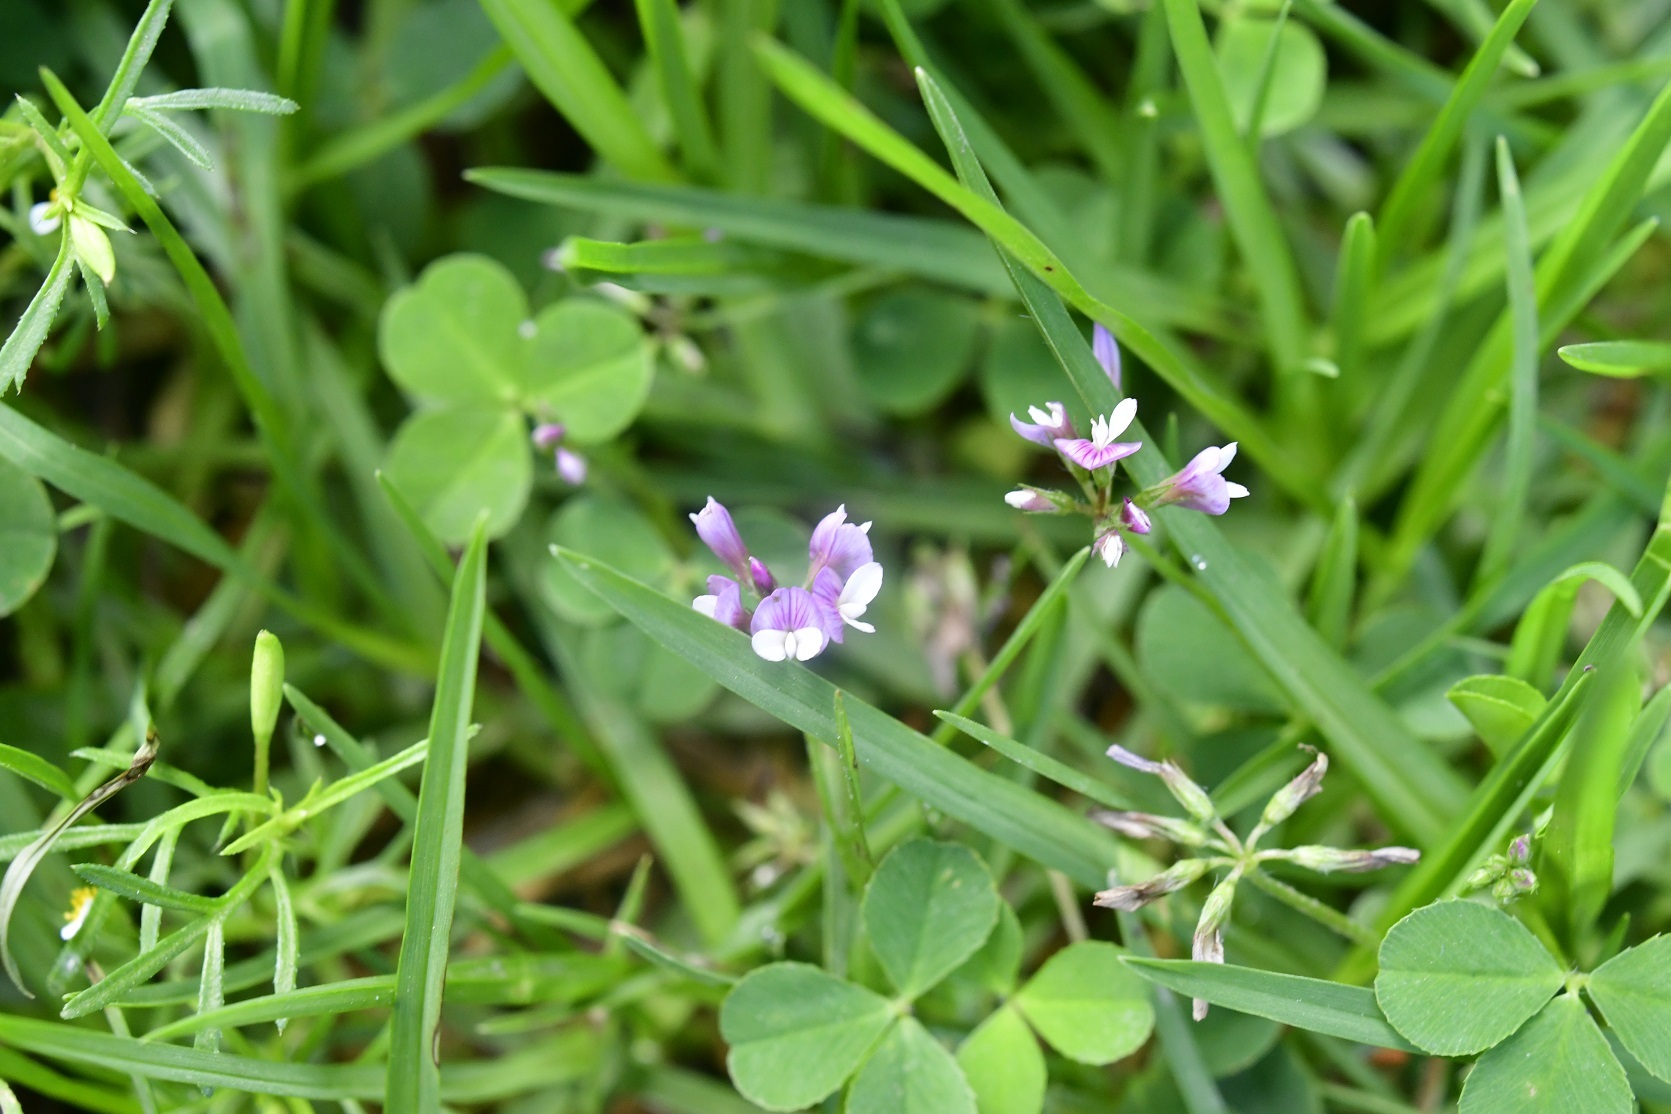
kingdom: Plantae
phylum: Tracheophyta
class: Magnoliopsida
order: Fabales
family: Fabaceae
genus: Trifolium
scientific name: Trifolium amabile
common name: Aztec clover
